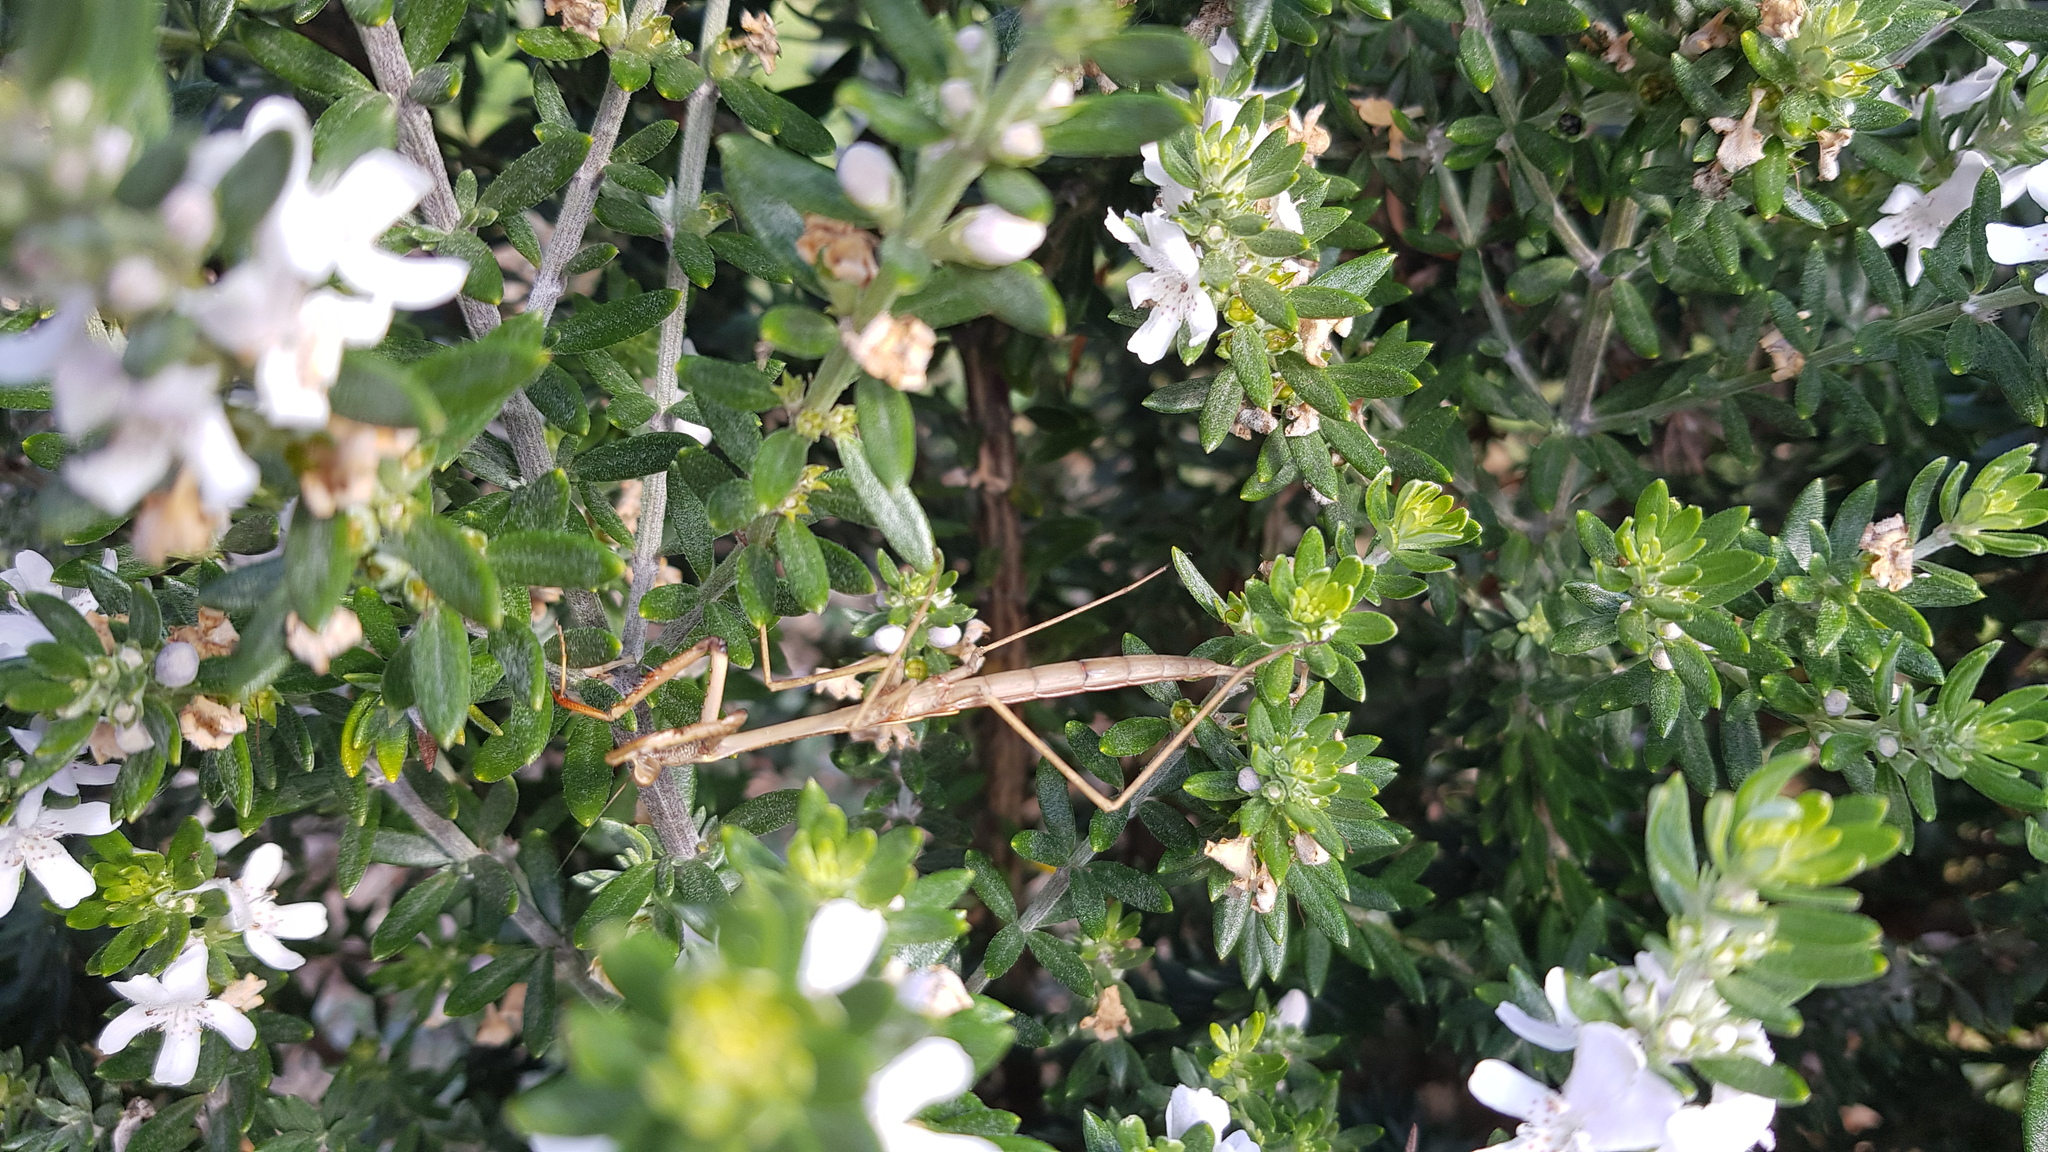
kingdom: Animalia
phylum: Arthropoda
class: Insecta
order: Mantodea
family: Mantidae
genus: Archimantis
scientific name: Archimantis latistyla
